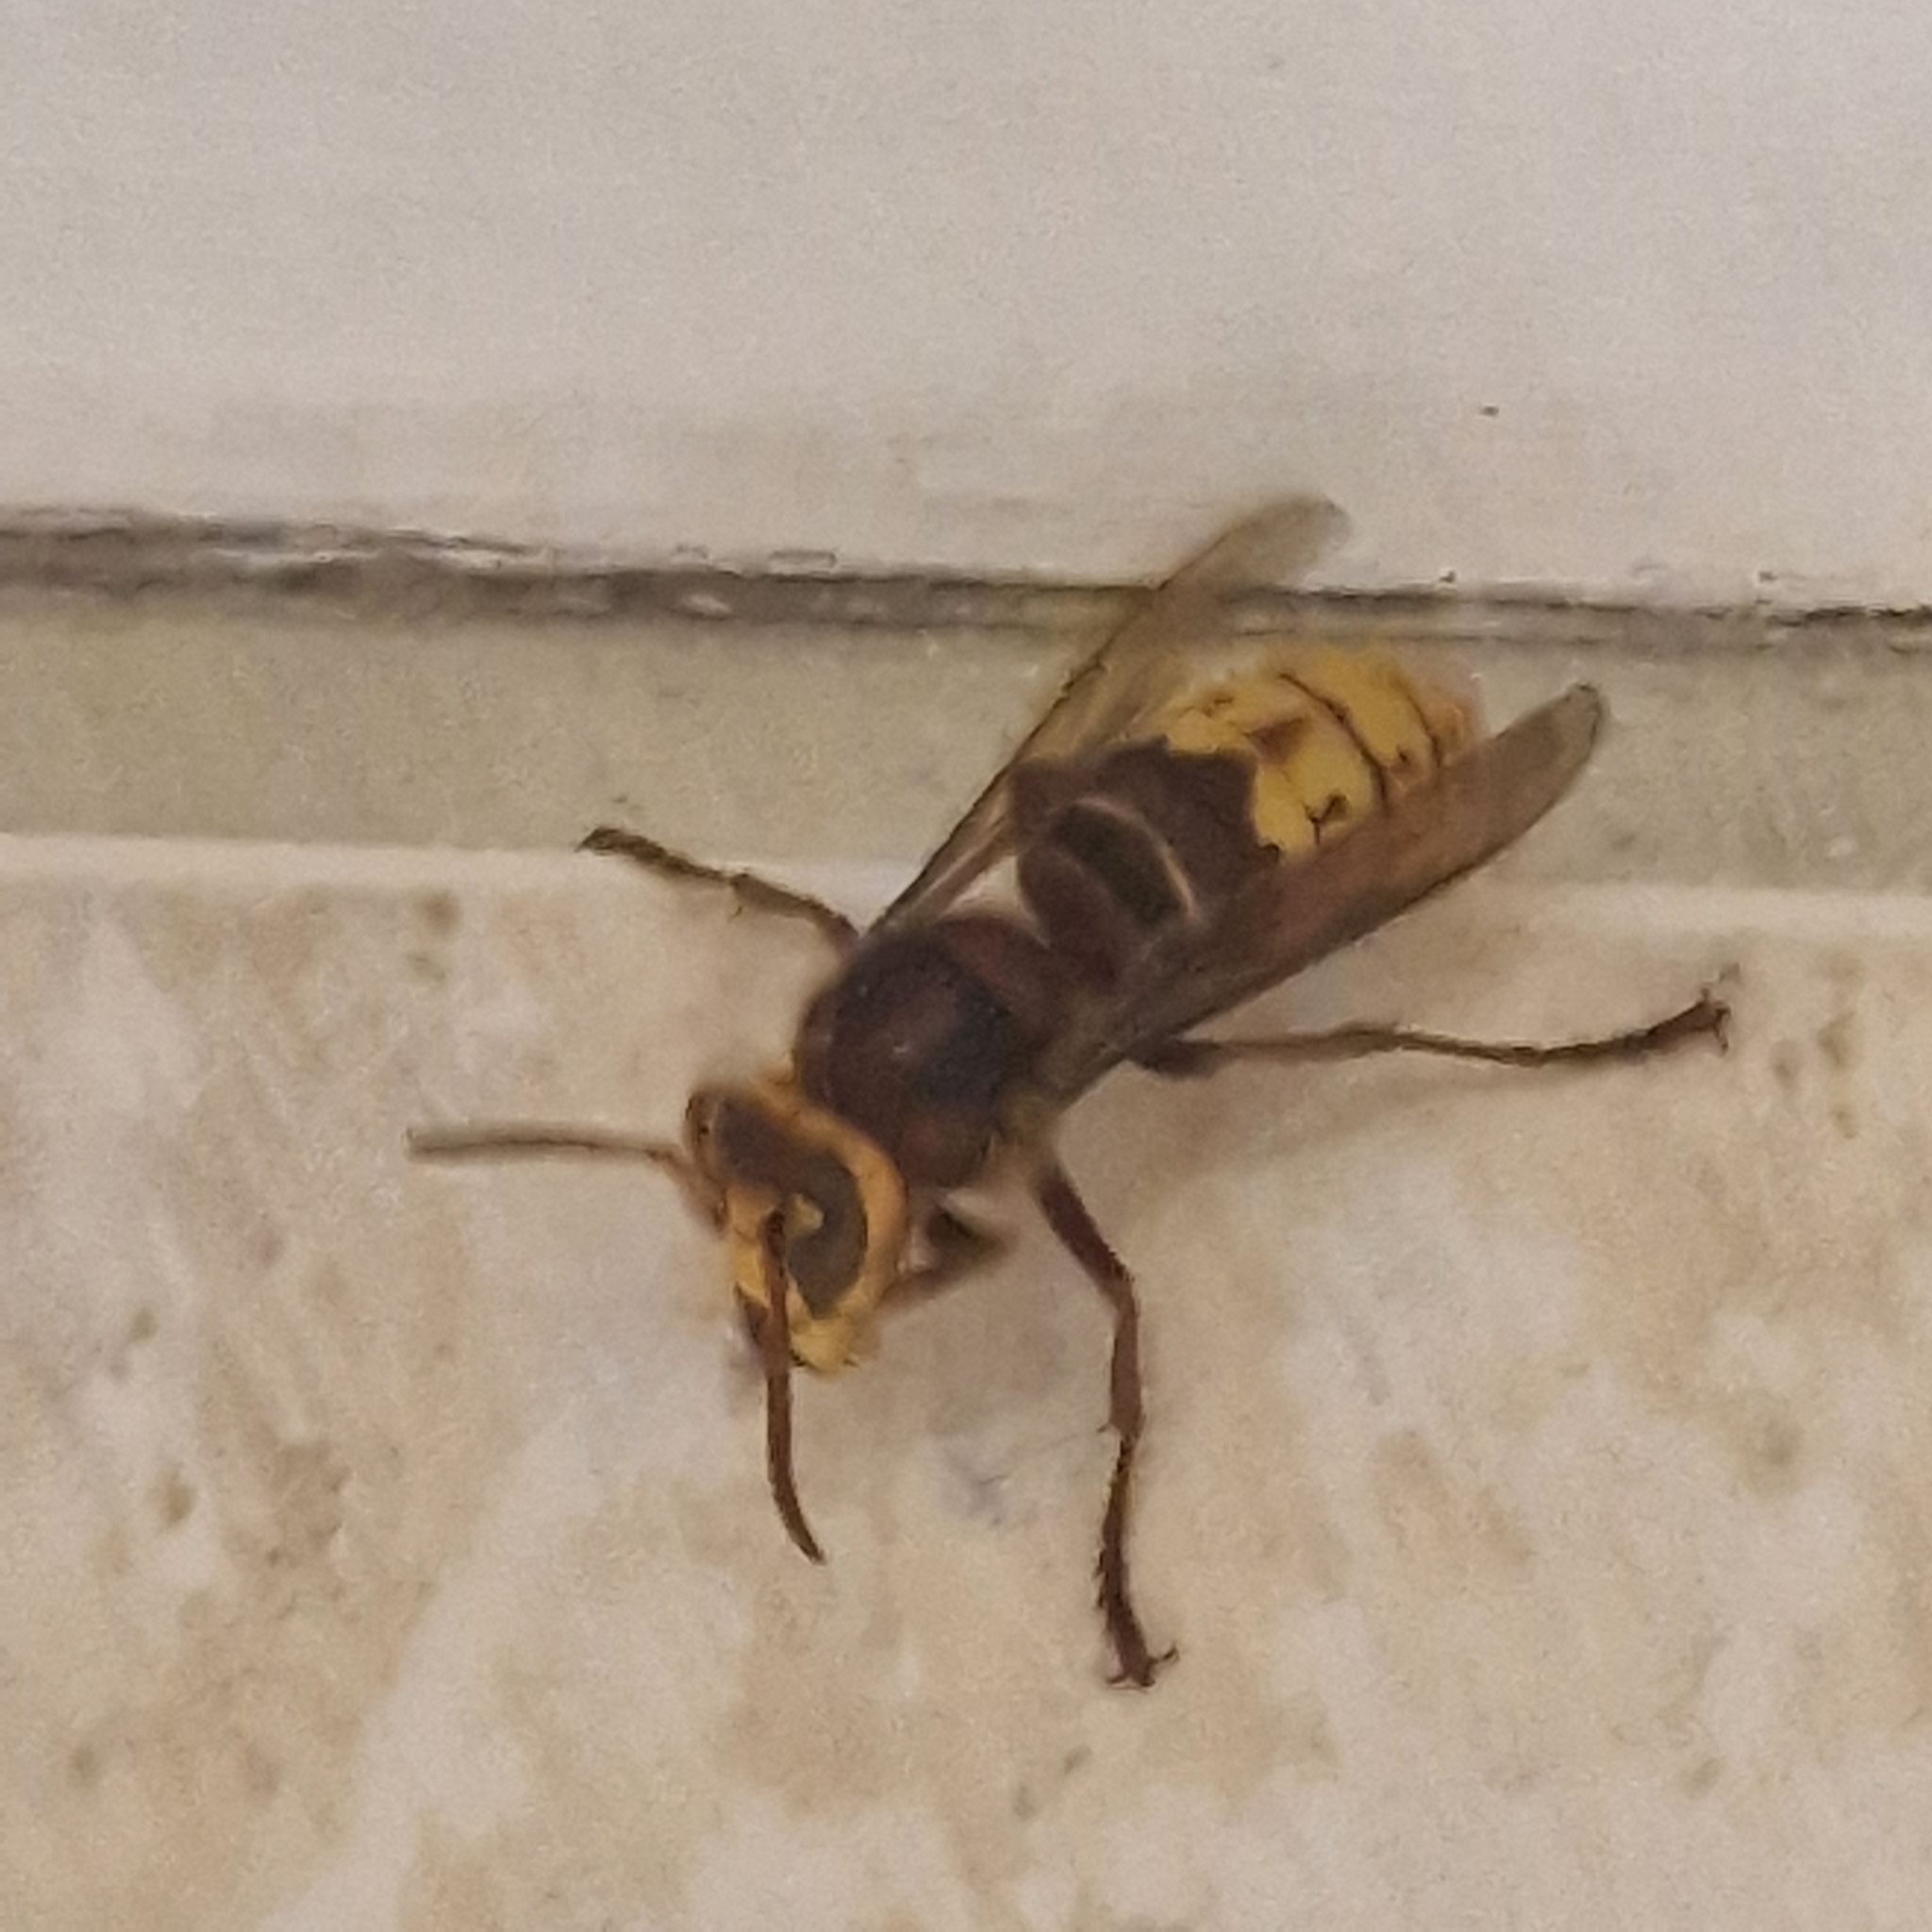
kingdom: Animalia
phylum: Arthropoda
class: Insecta
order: Hymenoptera
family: Vespidae
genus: Vespa
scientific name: Vespa crabro
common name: Hornet
